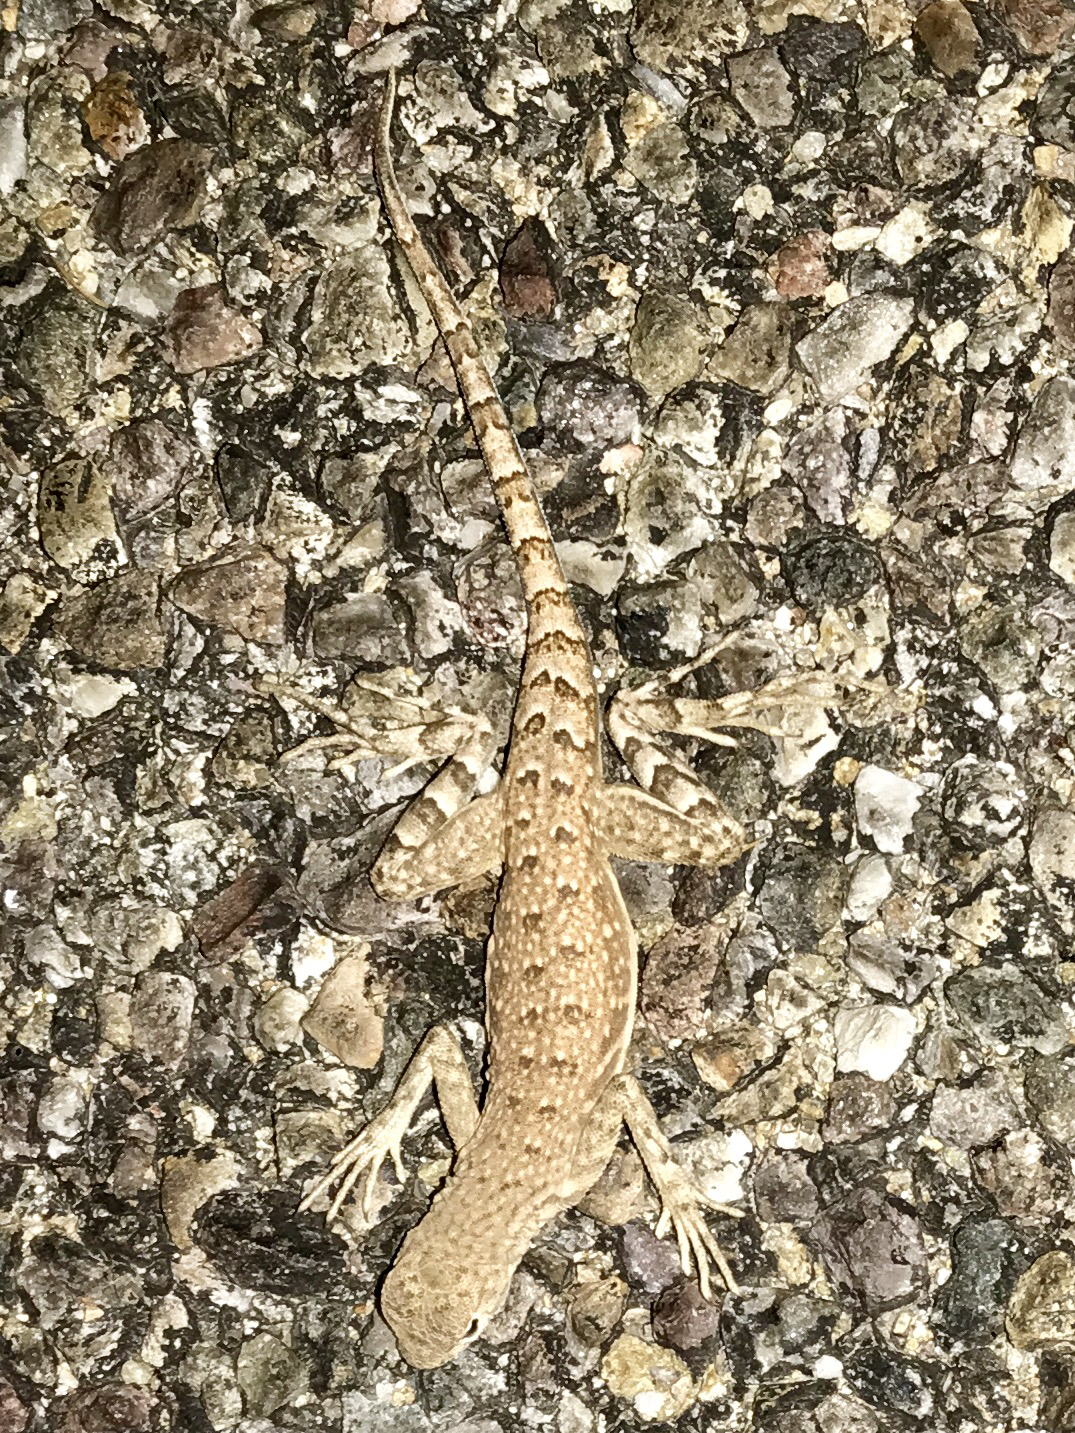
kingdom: Animalia
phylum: Chordata
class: Squamata
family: Phrynosomatidae
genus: Callisaurus
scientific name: Callisaurus draconoides
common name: Zebra-tailed lizard
